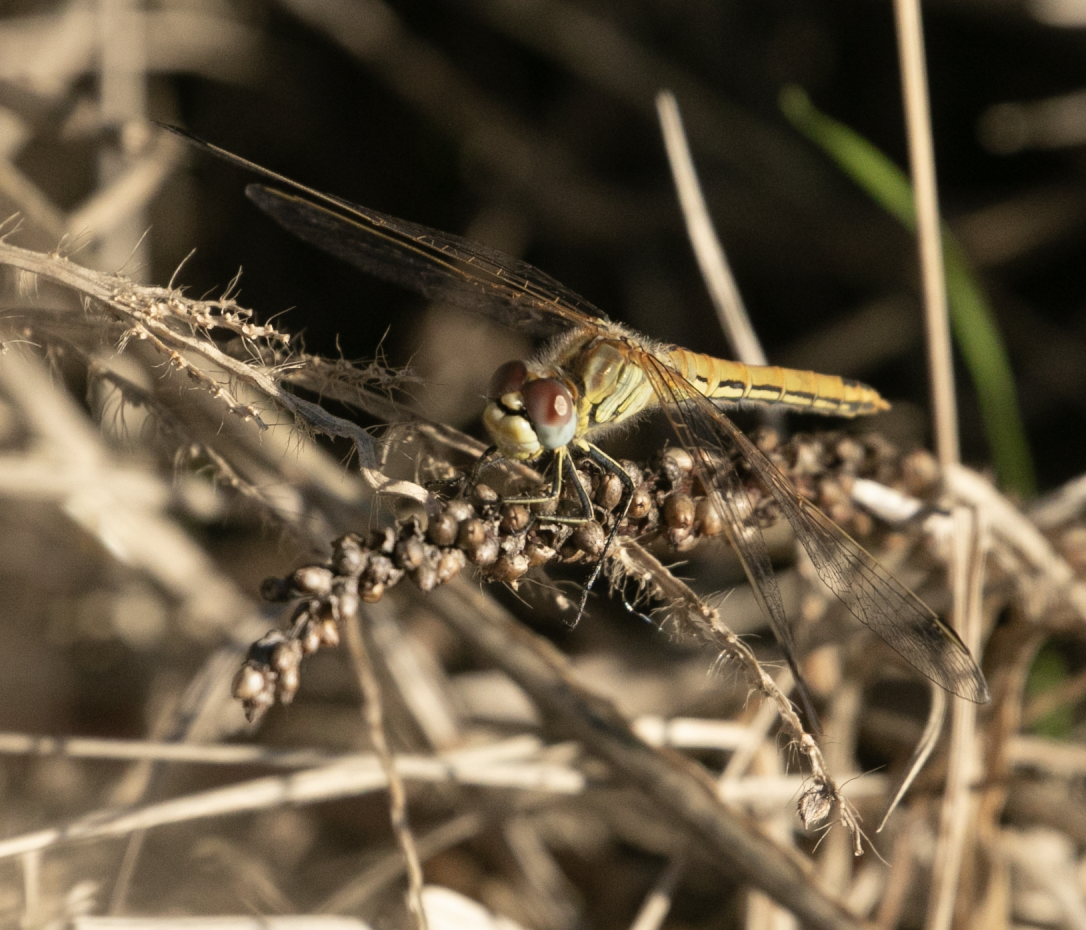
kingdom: Animalia
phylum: Arthropoda
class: Insecta
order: Odonata
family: Libellulidae
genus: Sympetrum
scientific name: Sympetrum fonscolombii
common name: Red-veined darter
